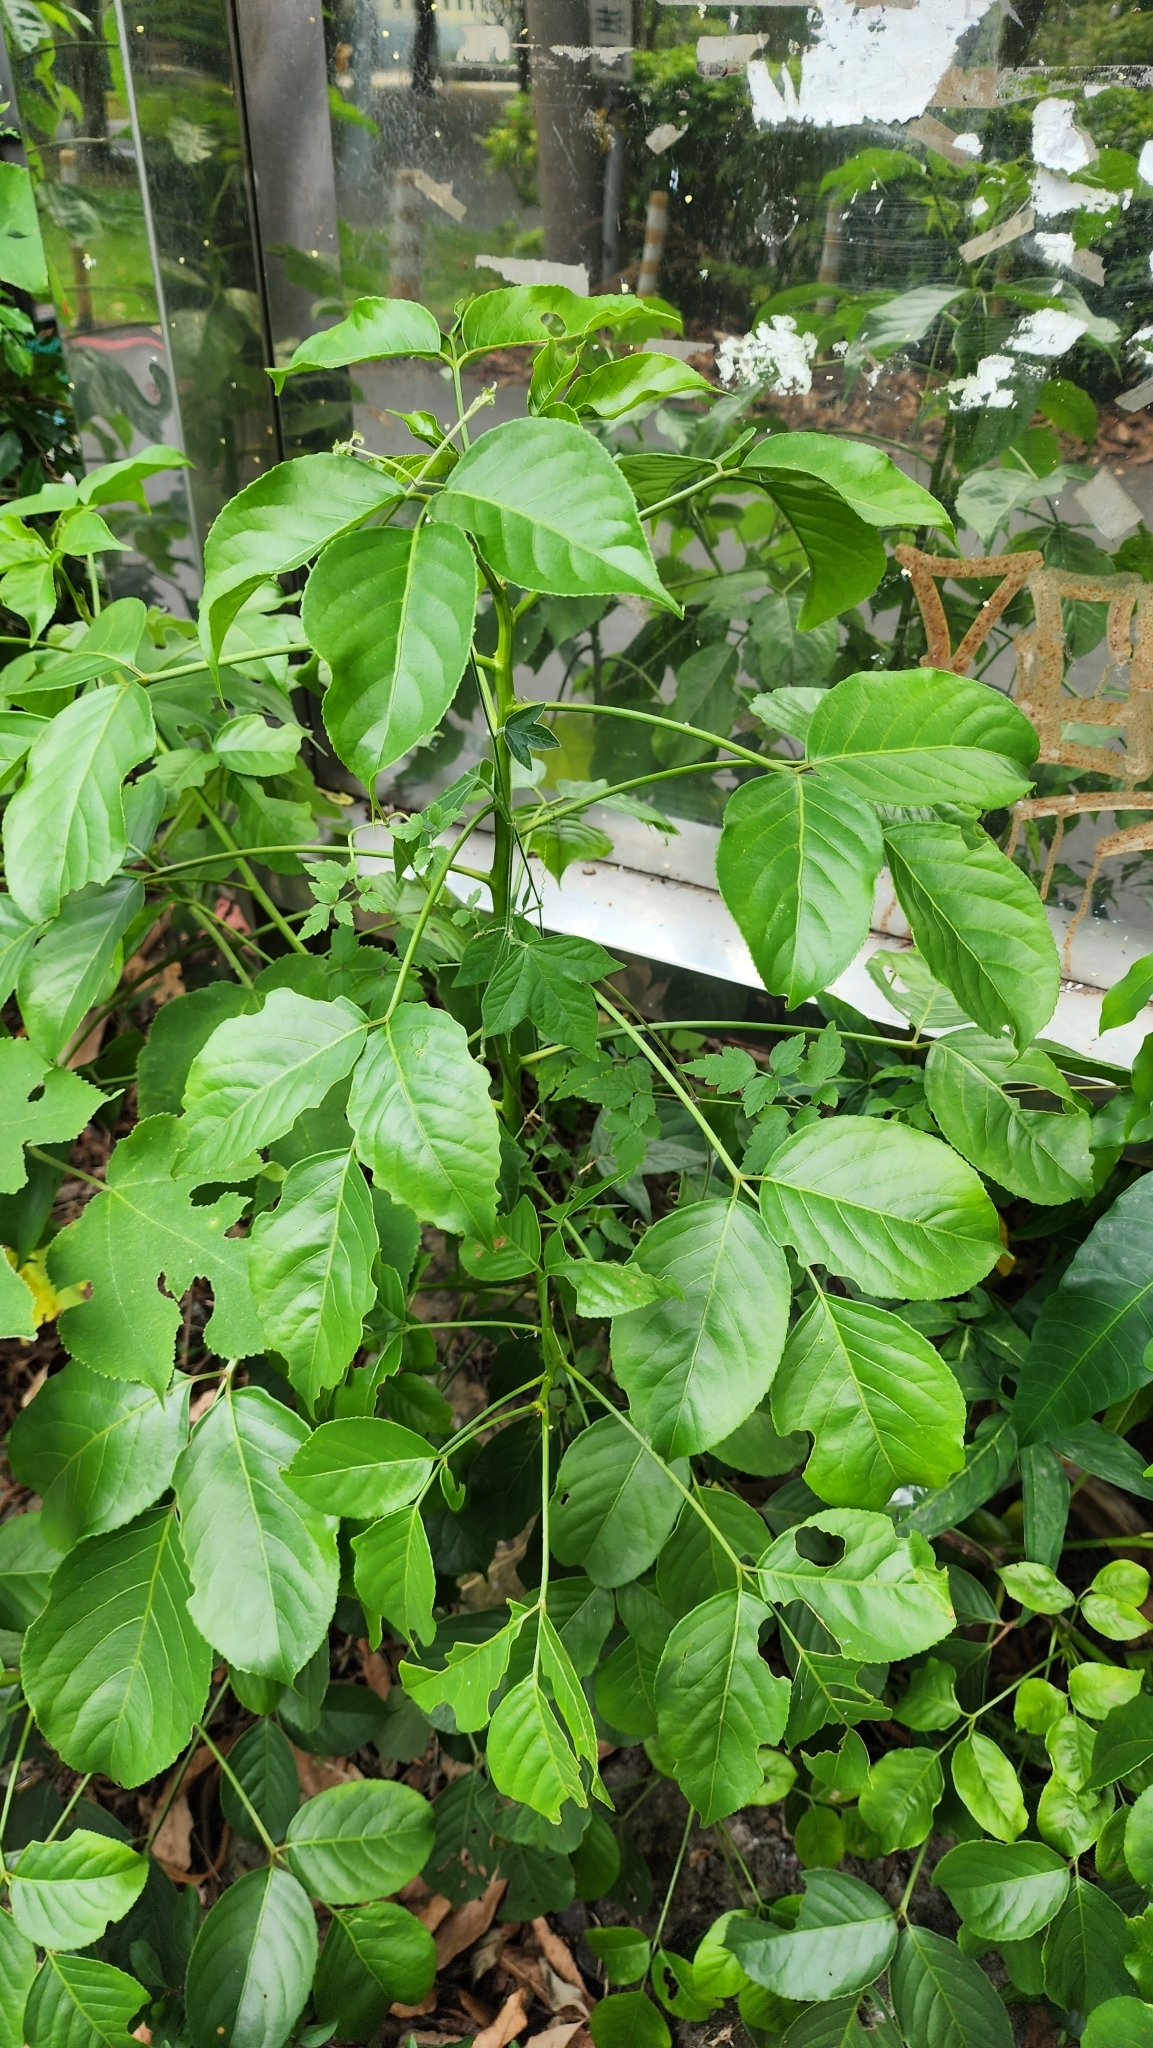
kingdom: Plantae
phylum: Tracheophyta
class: Magnoliopsida
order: Malpighiales
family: Phyllanthaceae
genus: Bischofia
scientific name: Bischofia javanica
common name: Javanese bishopwood
